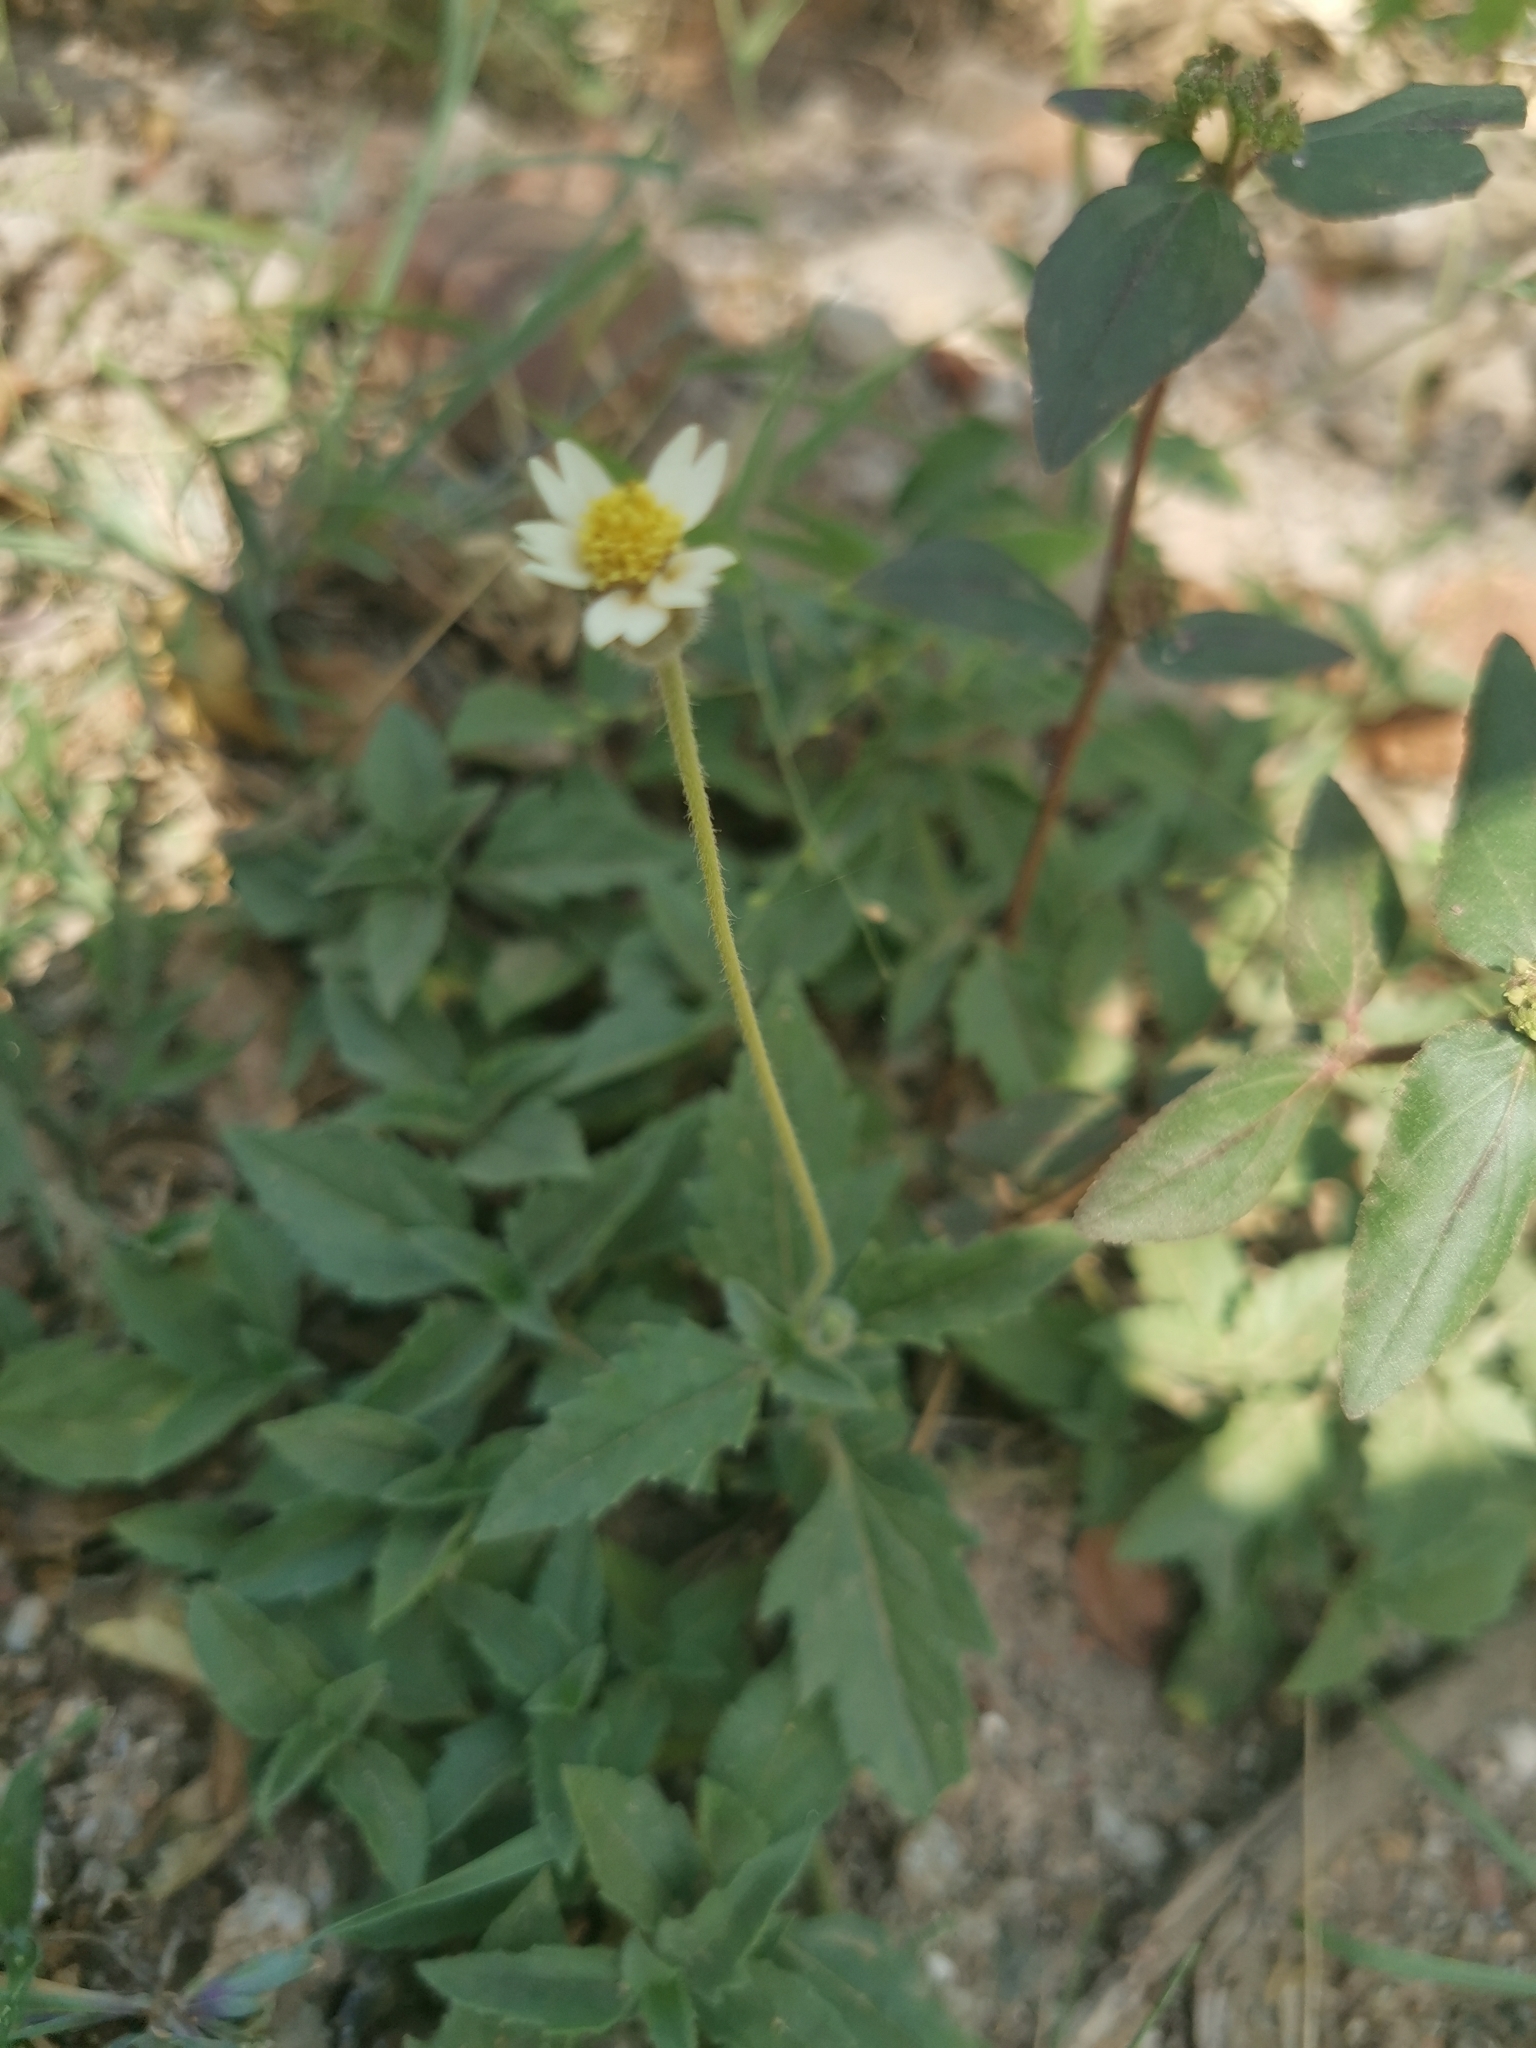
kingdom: Plantae
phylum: Tracheophyta
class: Magnoliopsida
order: Asterales
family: Asteraceae
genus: Tridax
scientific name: Tridax procumbens
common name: Coatbuttons
